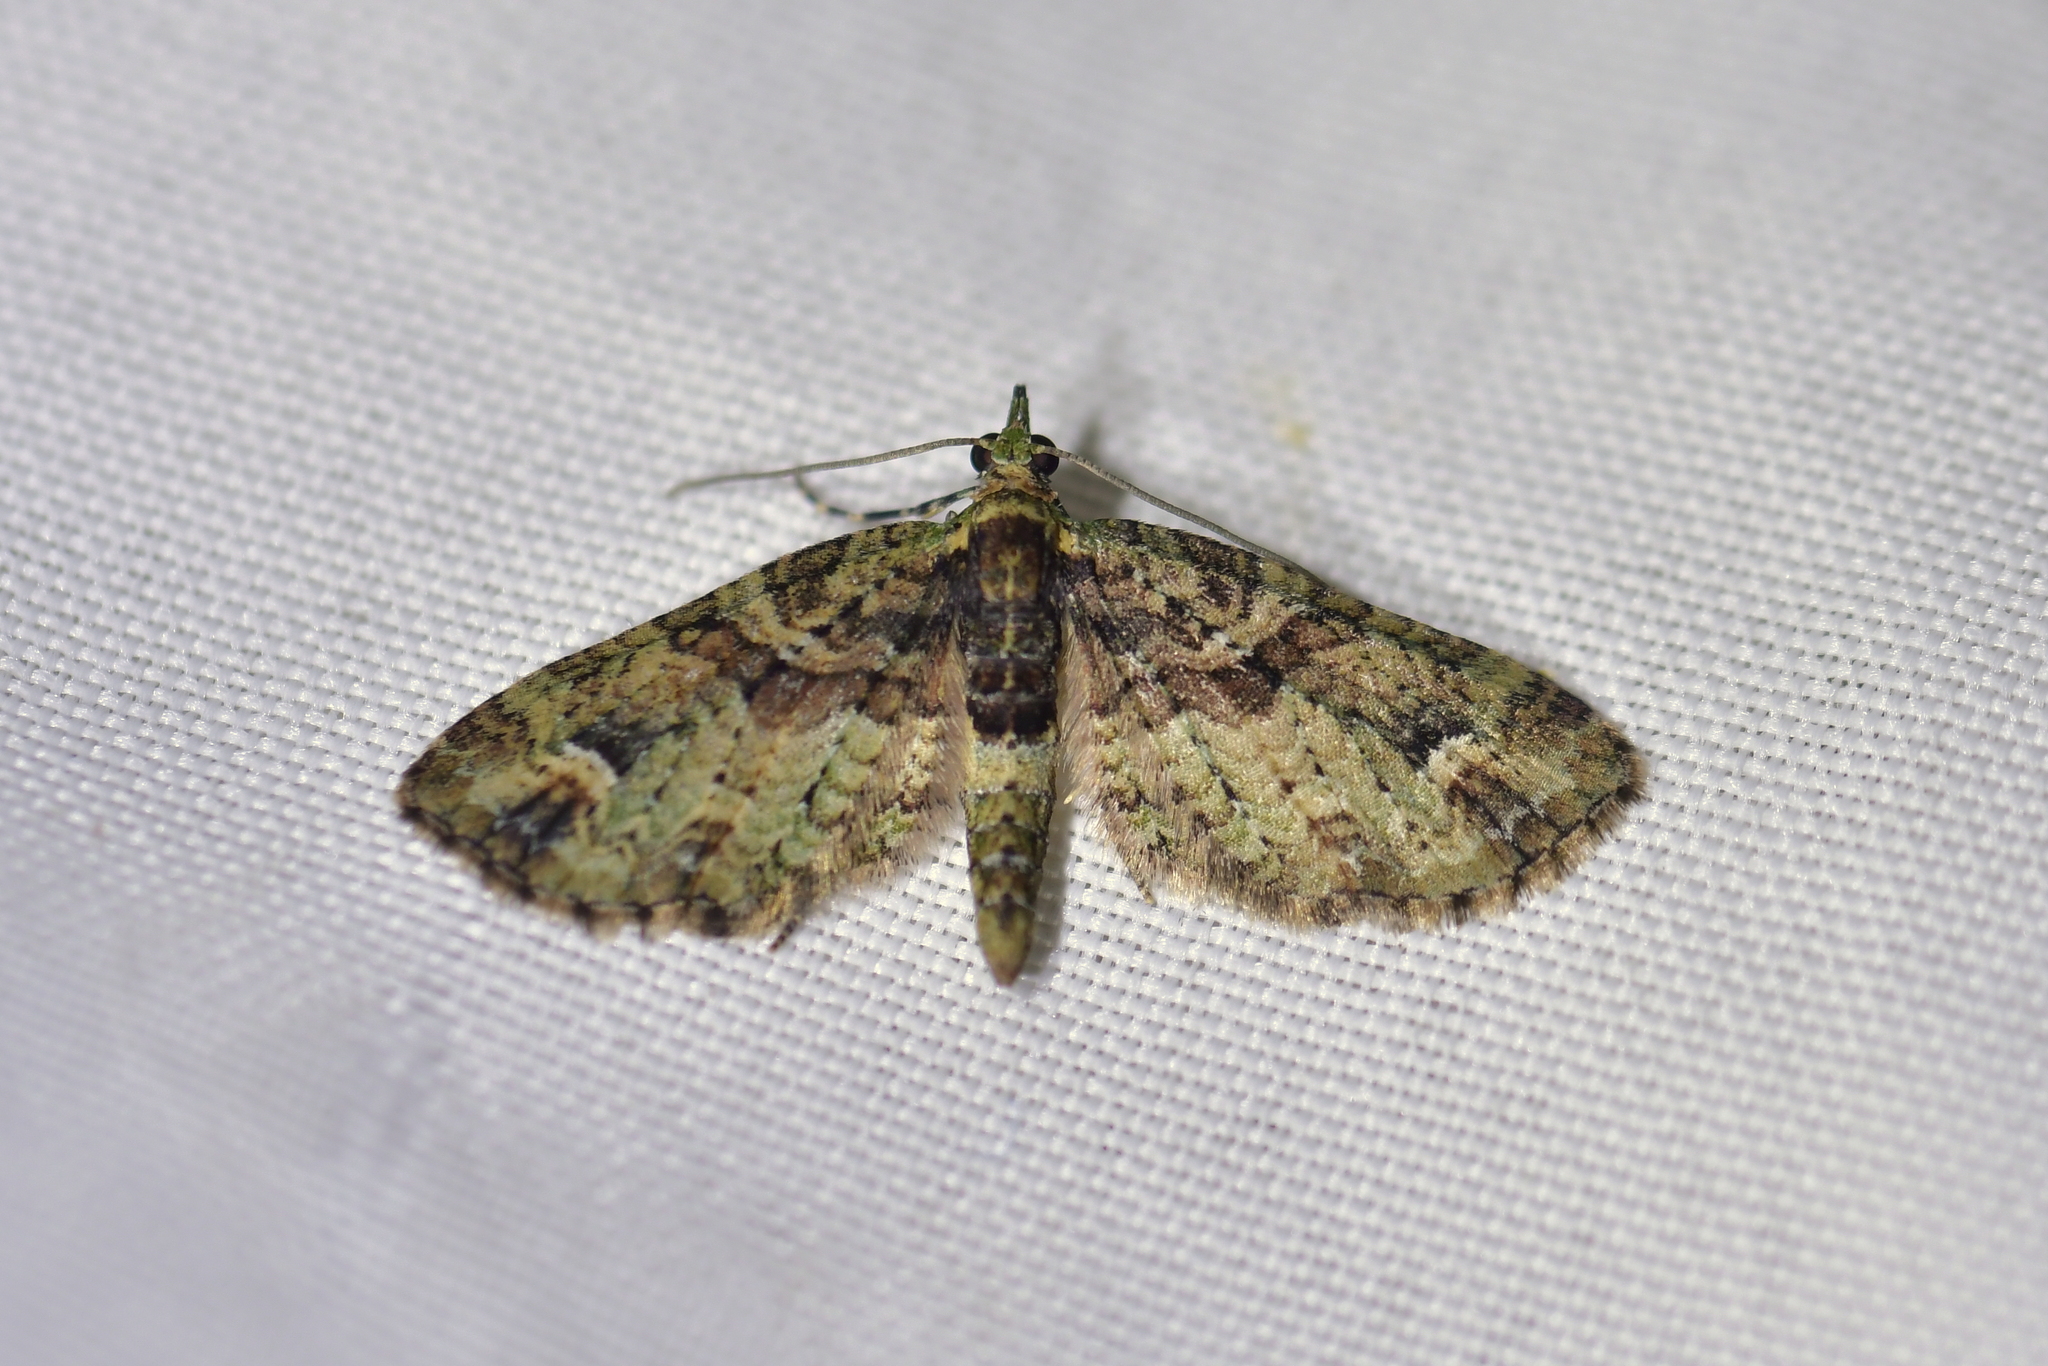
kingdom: Animalia
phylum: Arthropoda
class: Insecta
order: Lepidoptera
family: Geometridae
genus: Idaea
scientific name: Idaea mutanda
